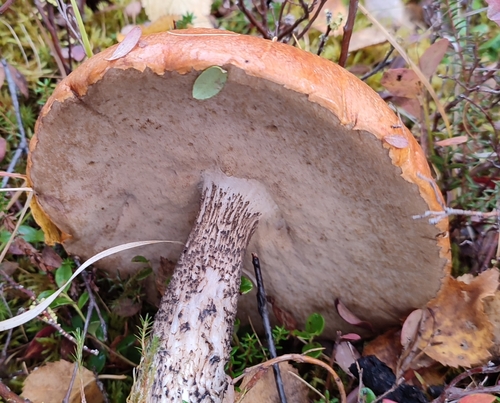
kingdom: Fungi
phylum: Basidiomycota
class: Agaricomycetes
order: Boletales
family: Boletaceae
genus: Leccinum
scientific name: Leccinum
